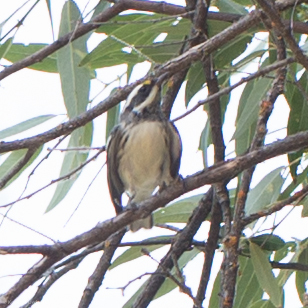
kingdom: Animalia
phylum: Chordata
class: Aves
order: Passeriformes
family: Parulidae
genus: Setophaga
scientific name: Setophaga nigrescens
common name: Black-throated gray warbler
